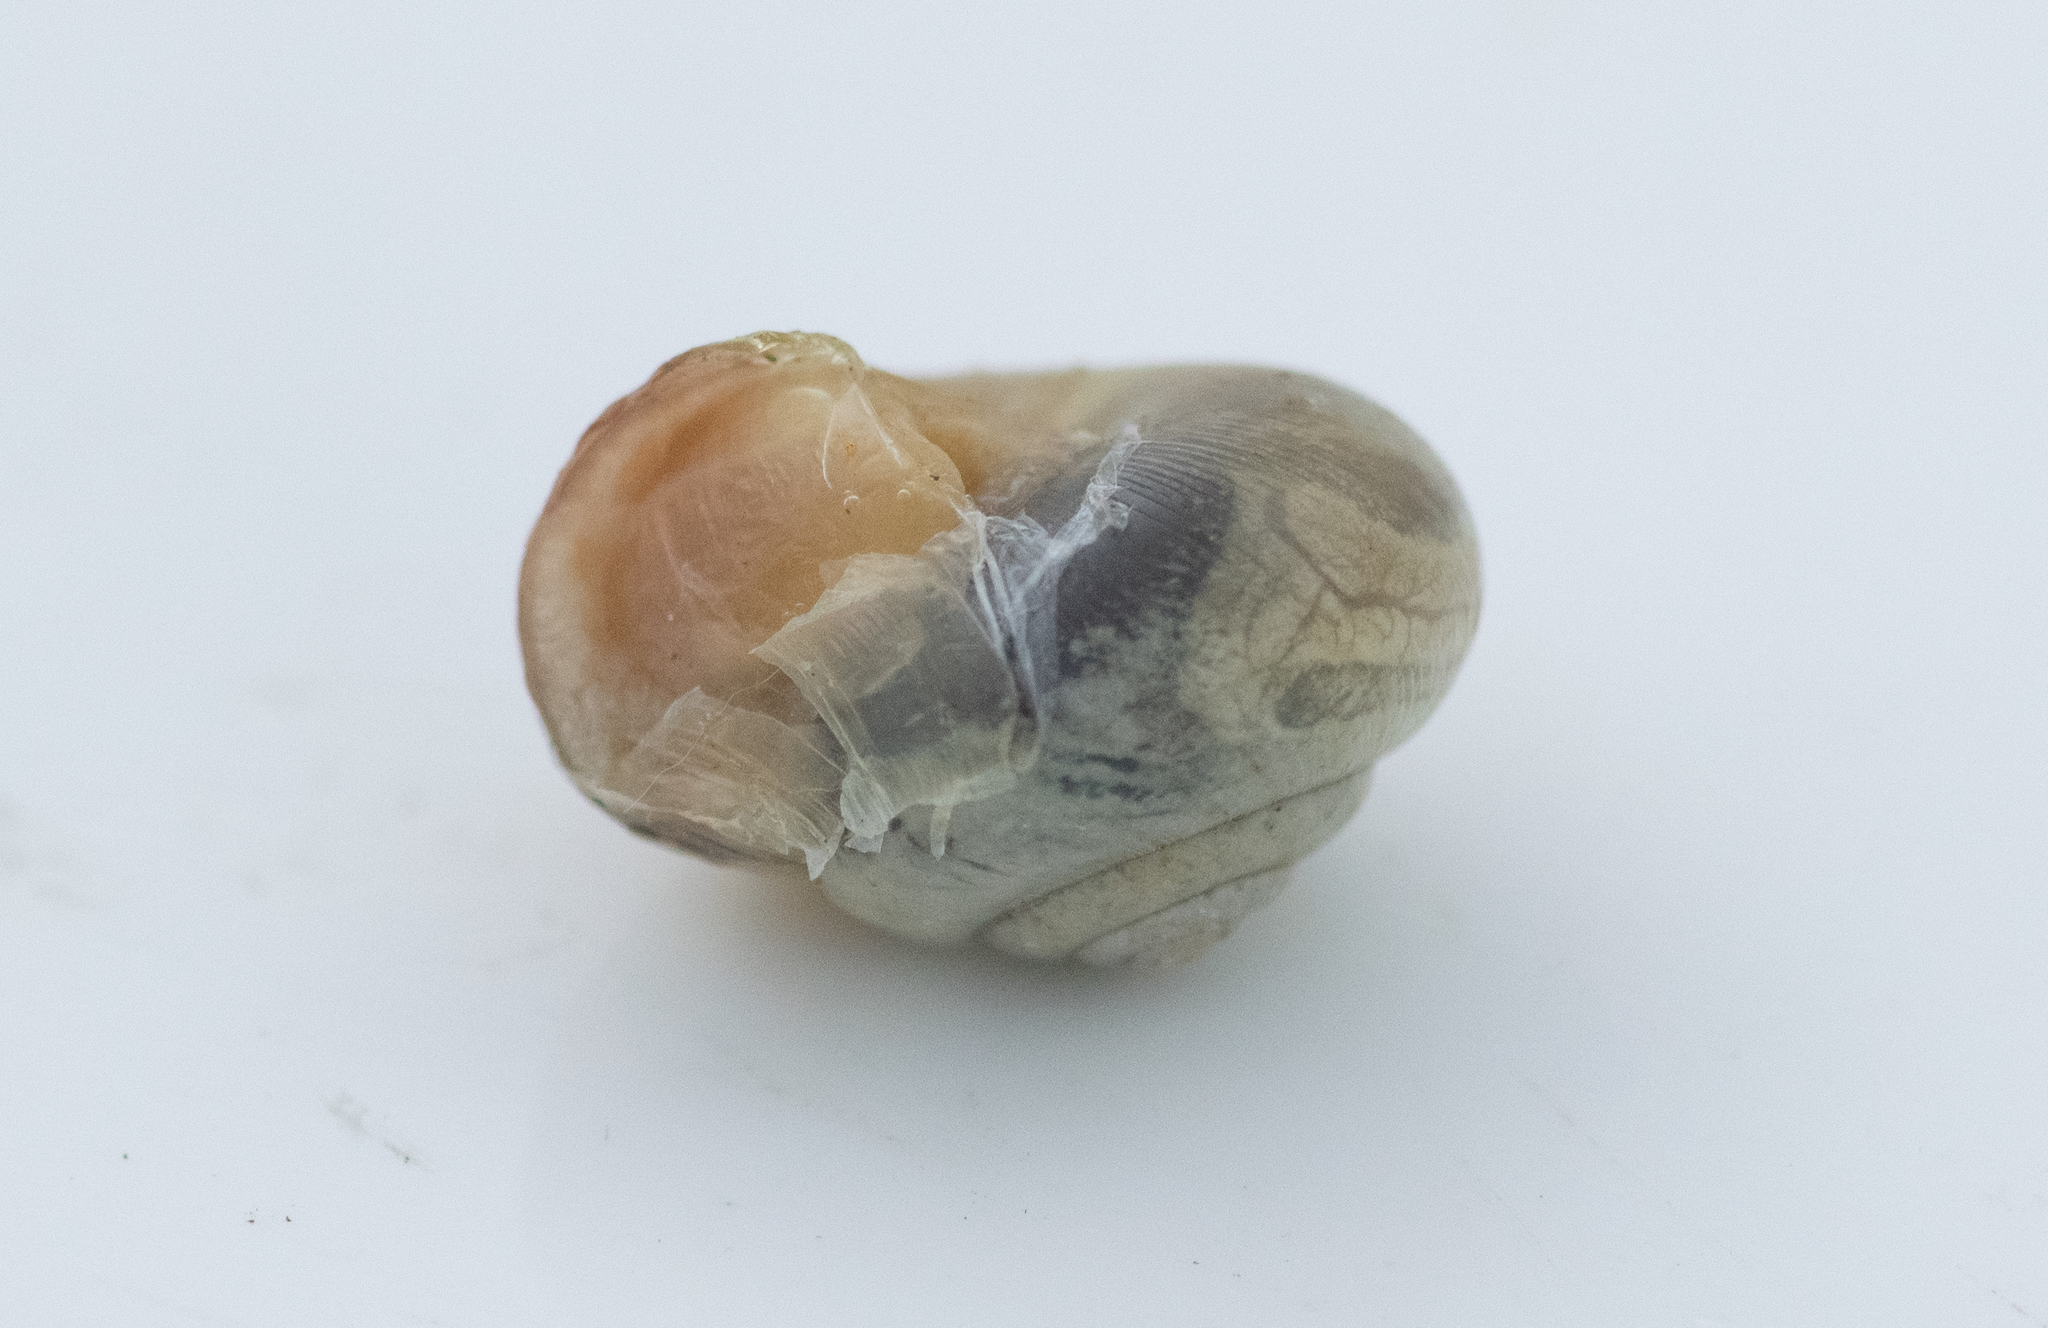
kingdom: Animalia
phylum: Mollusca
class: Gastropoda
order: Stylommatophora
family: Hygromiidae
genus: Monacha
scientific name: Monacha cantiana
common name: Kentish snail
